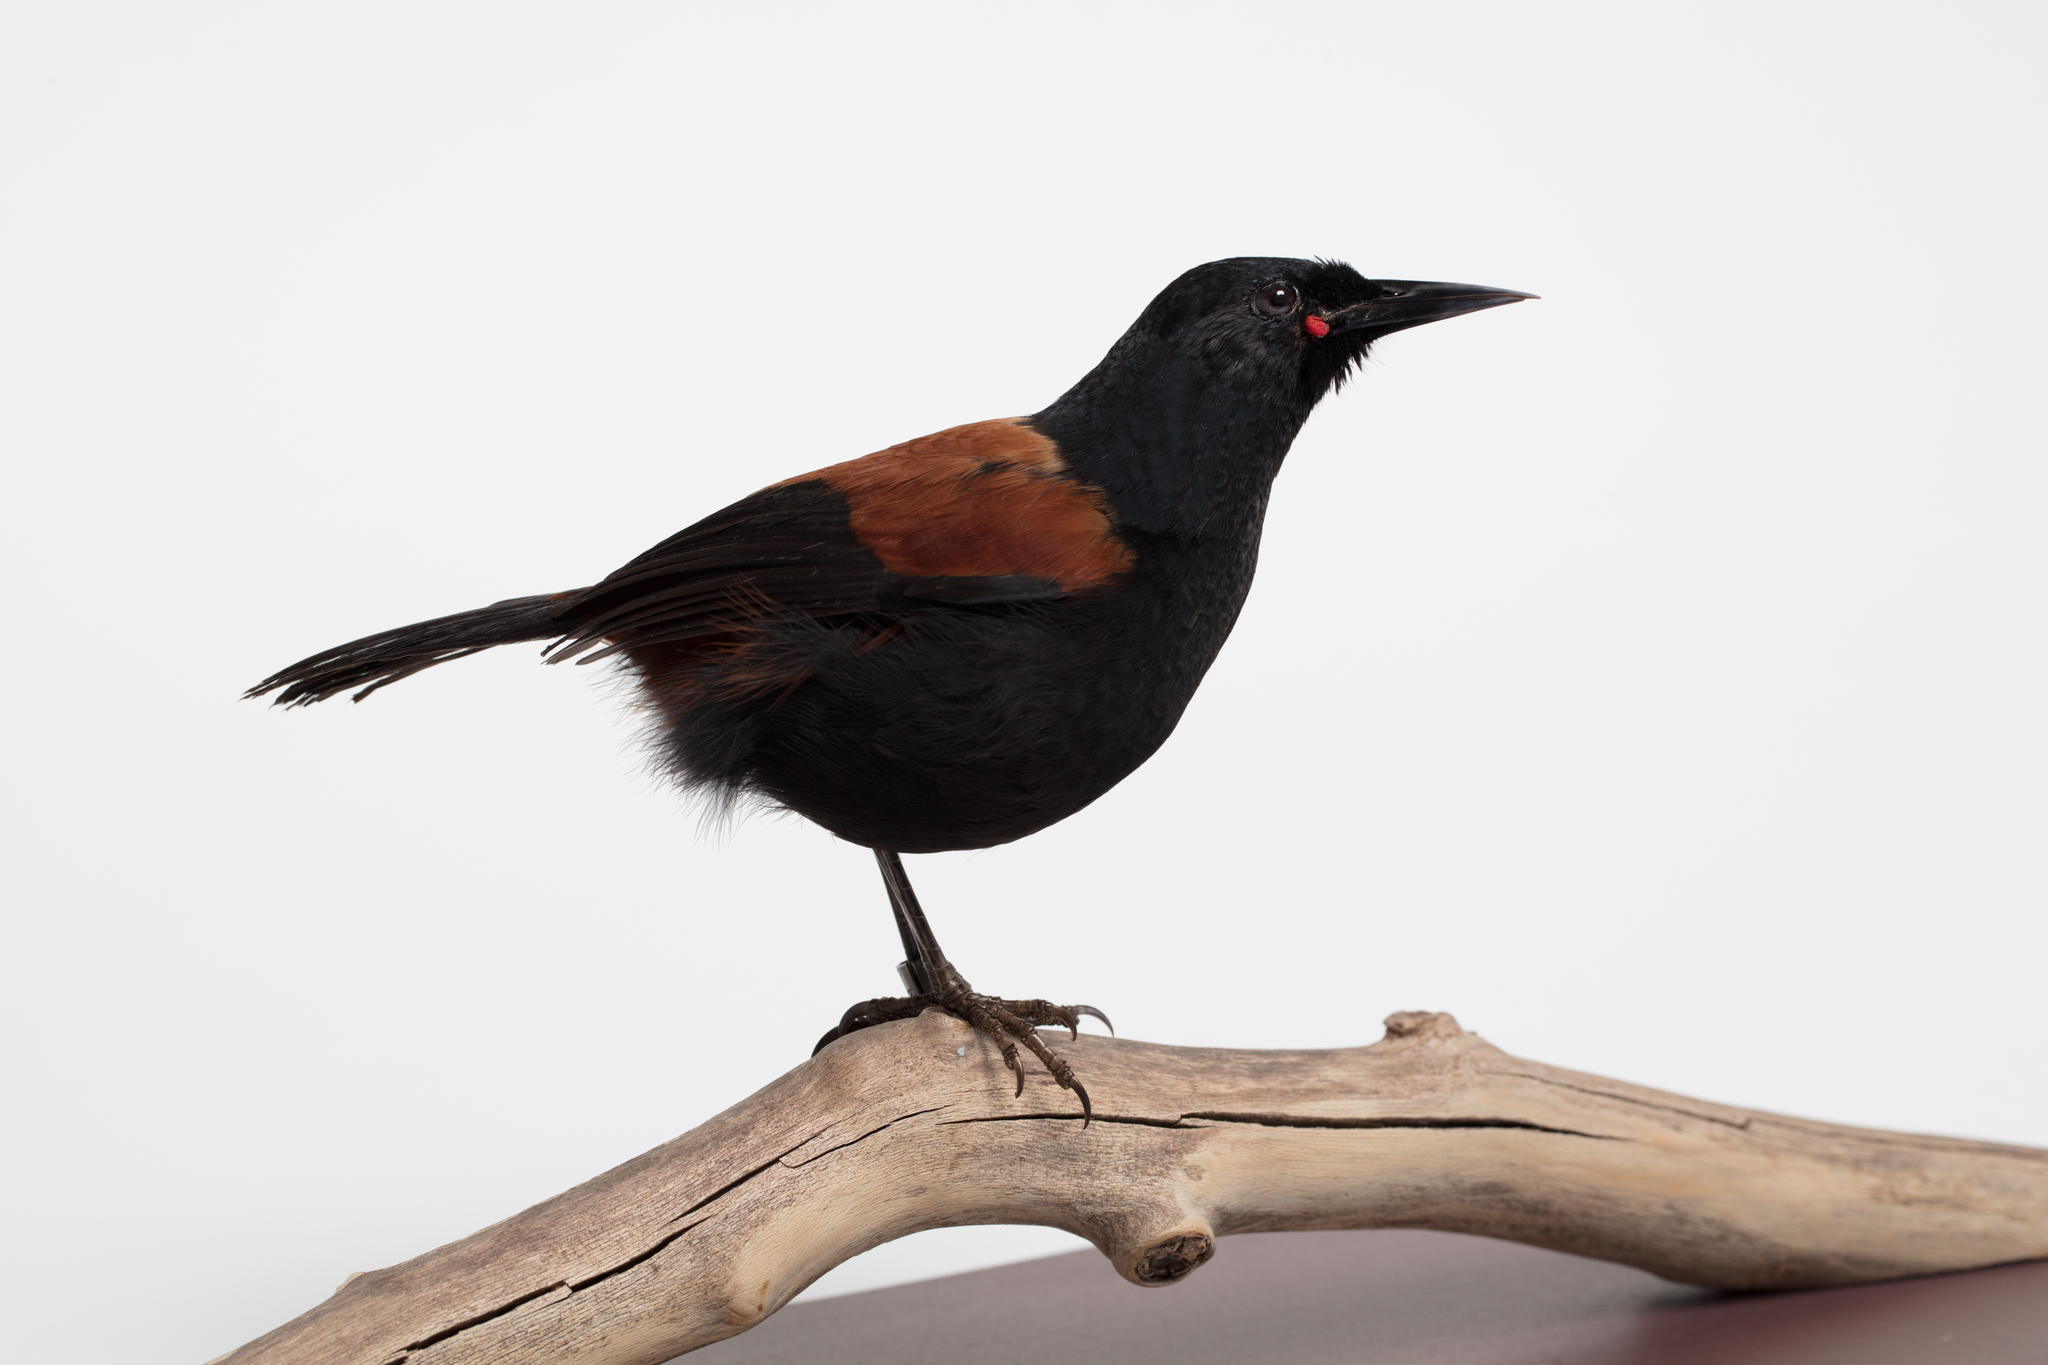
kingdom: Animalia
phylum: Chordata
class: Aves
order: Passeriformes
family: Callaeatidae
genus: Philesturnus
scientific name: Philesturnus carunculatus
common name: South island saddleback
